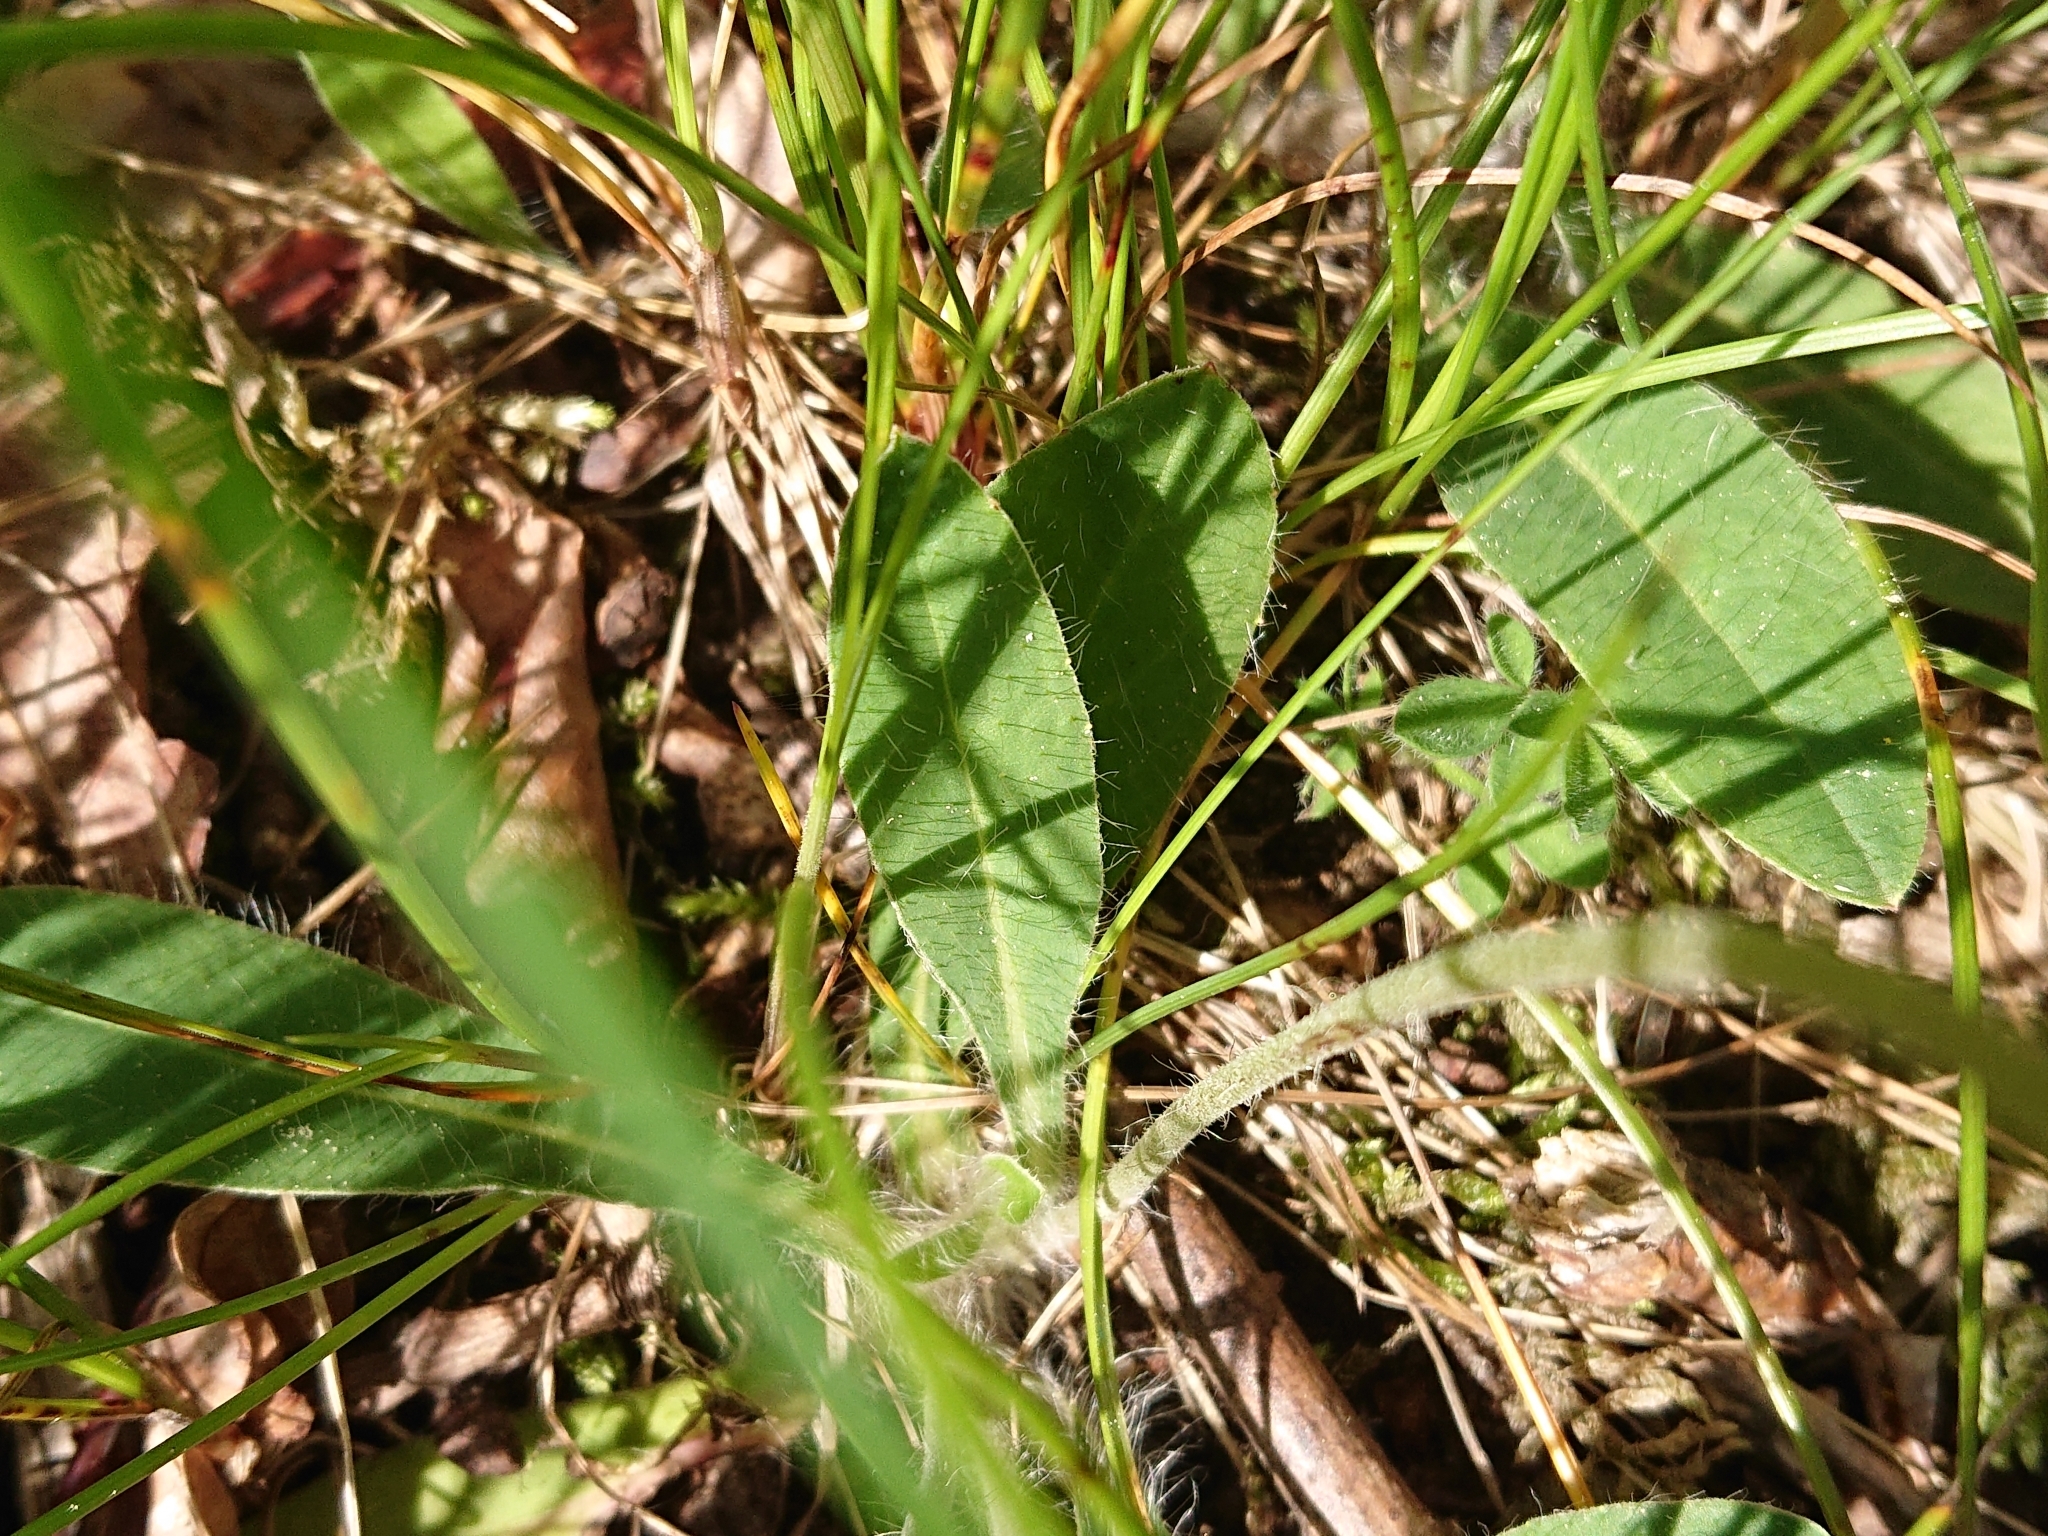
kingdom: Plantae
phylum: Tracheophyta
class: Magnoliopsida
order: Asterales
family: Asteraceae
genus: Hypochaeris
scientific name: Hypochaeris radicata
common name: Flatweed
